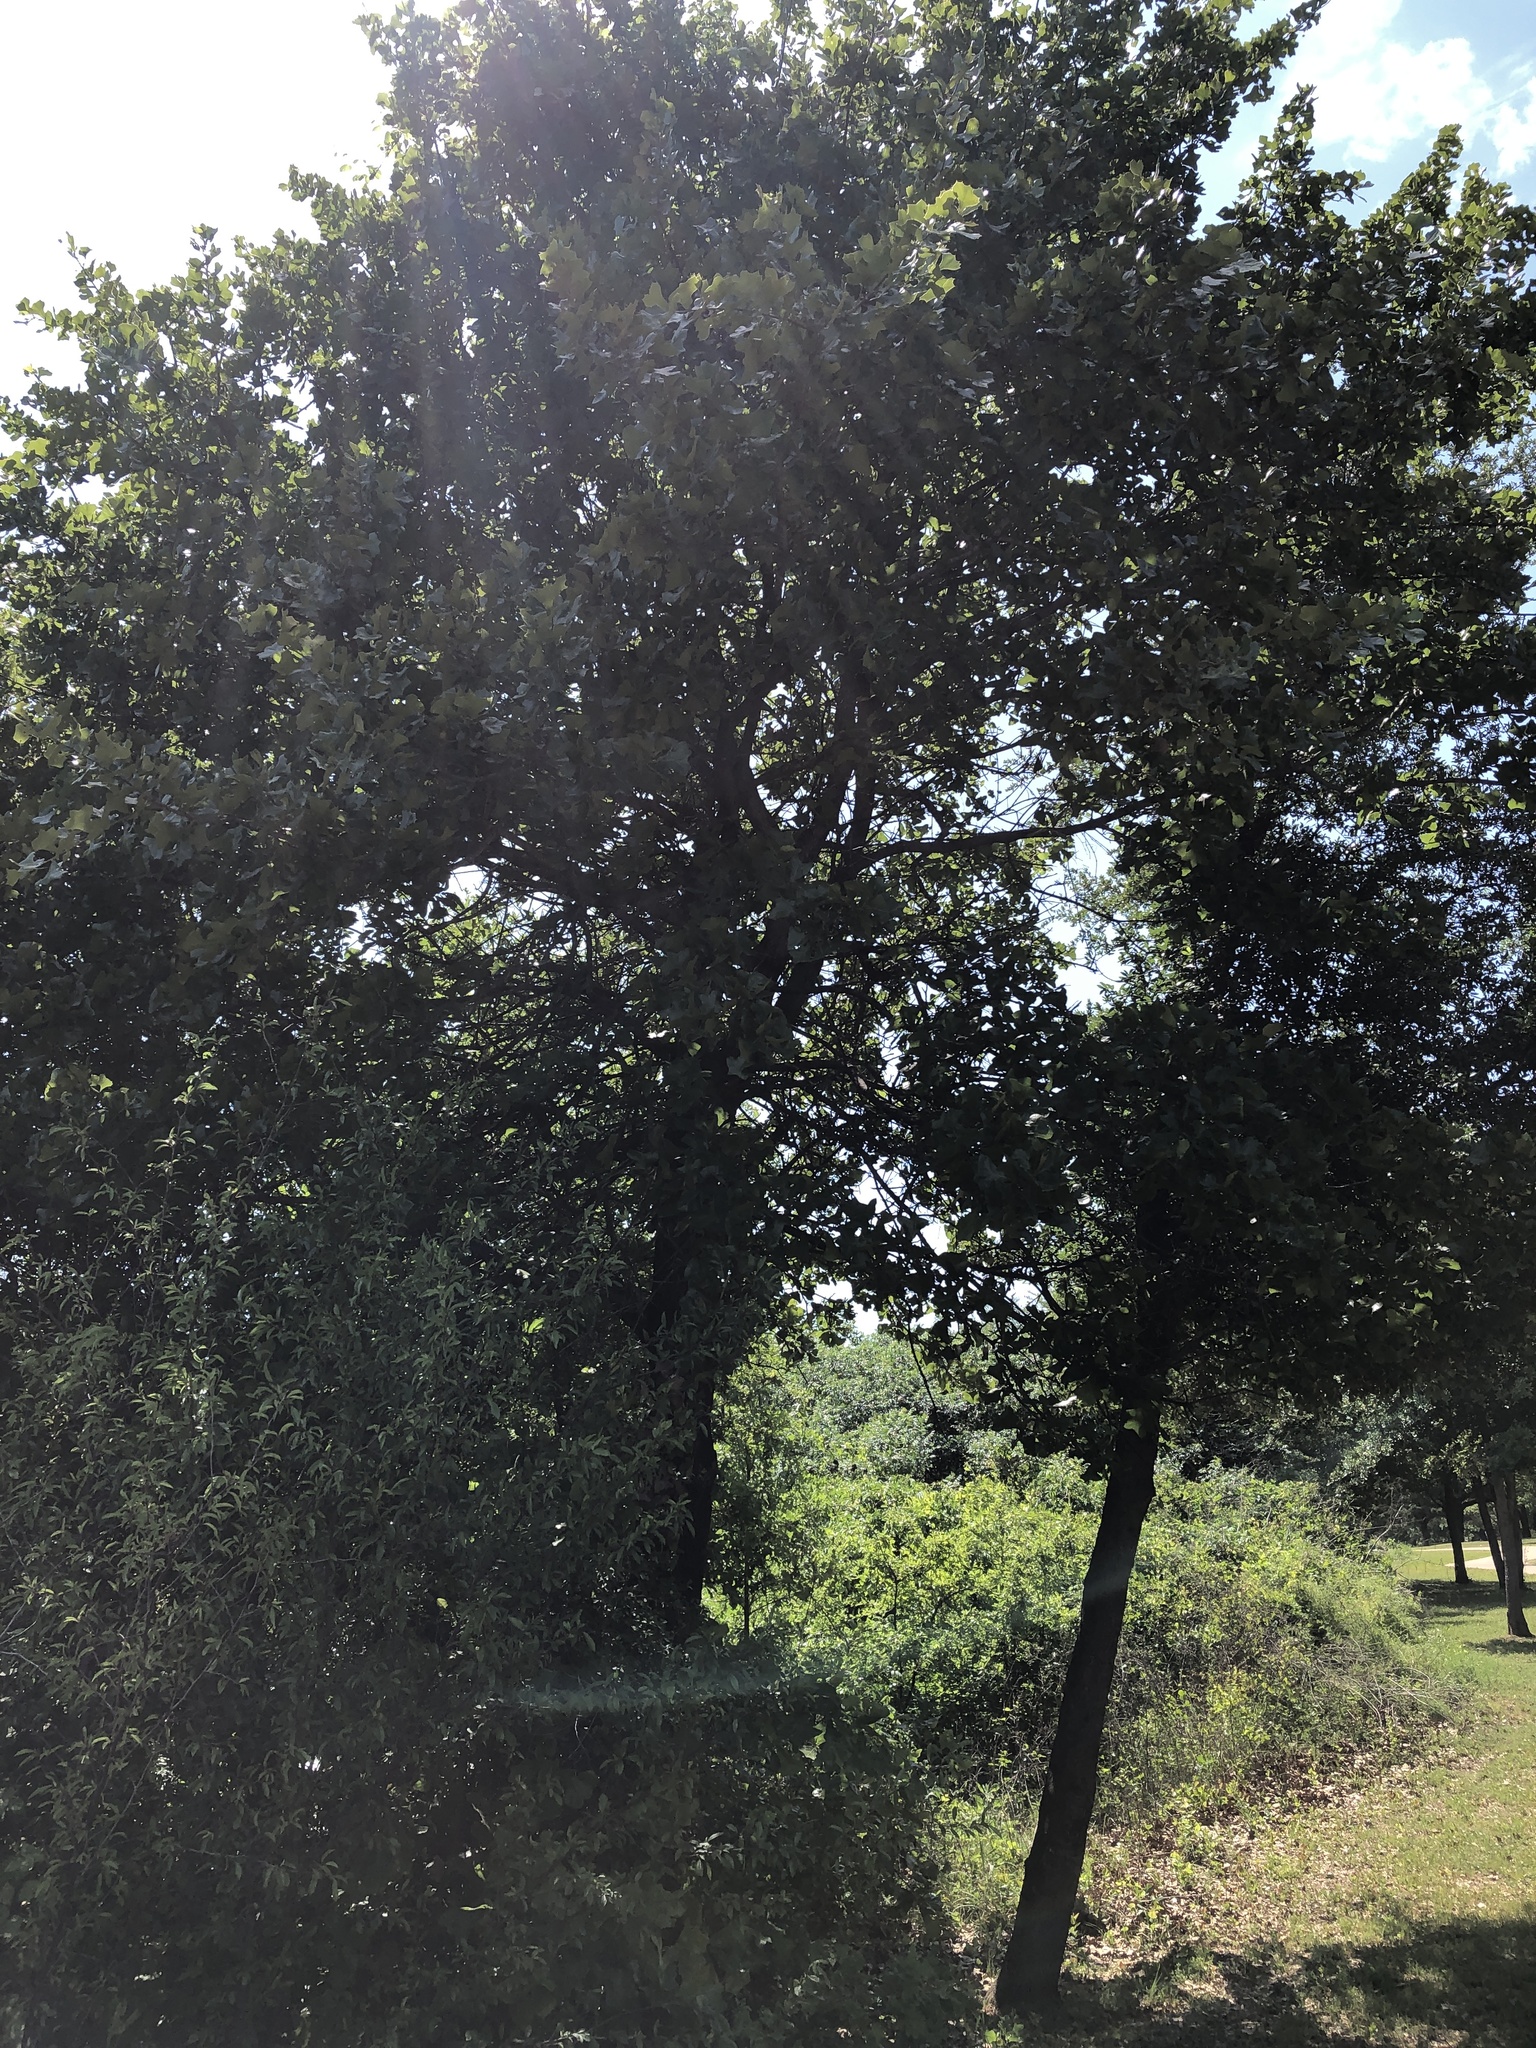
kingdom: Plantae
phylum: Tracheophyta
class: Magnoliopsida
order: Fagales
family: Fagaceae
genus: Quercus
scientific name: Quercus marilandica
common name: Blackjack oak
